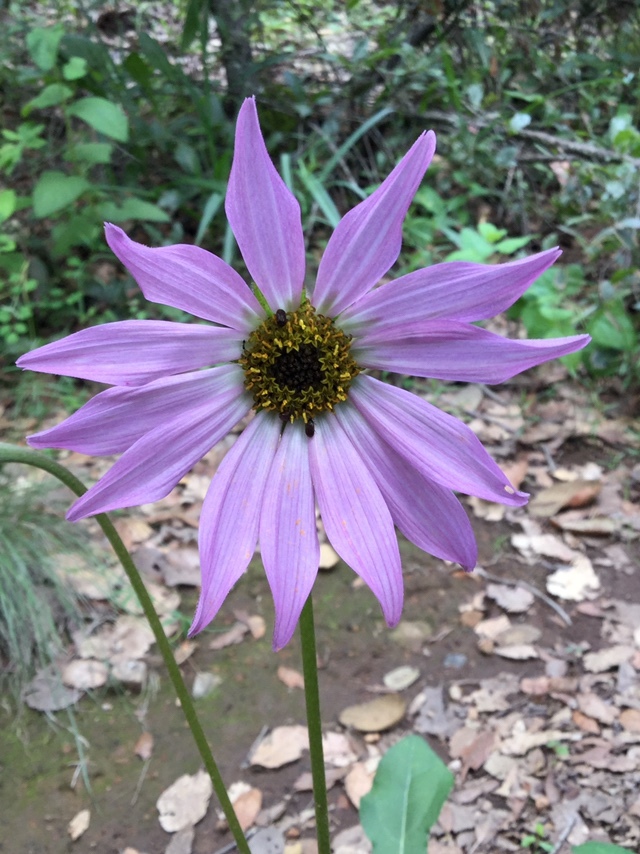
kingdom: Plantae
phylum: Tracheophyta
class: Magnoliopsida
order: Asterales
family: Asteraceae
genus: Iostephane
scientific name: Iostephane heterophylla
